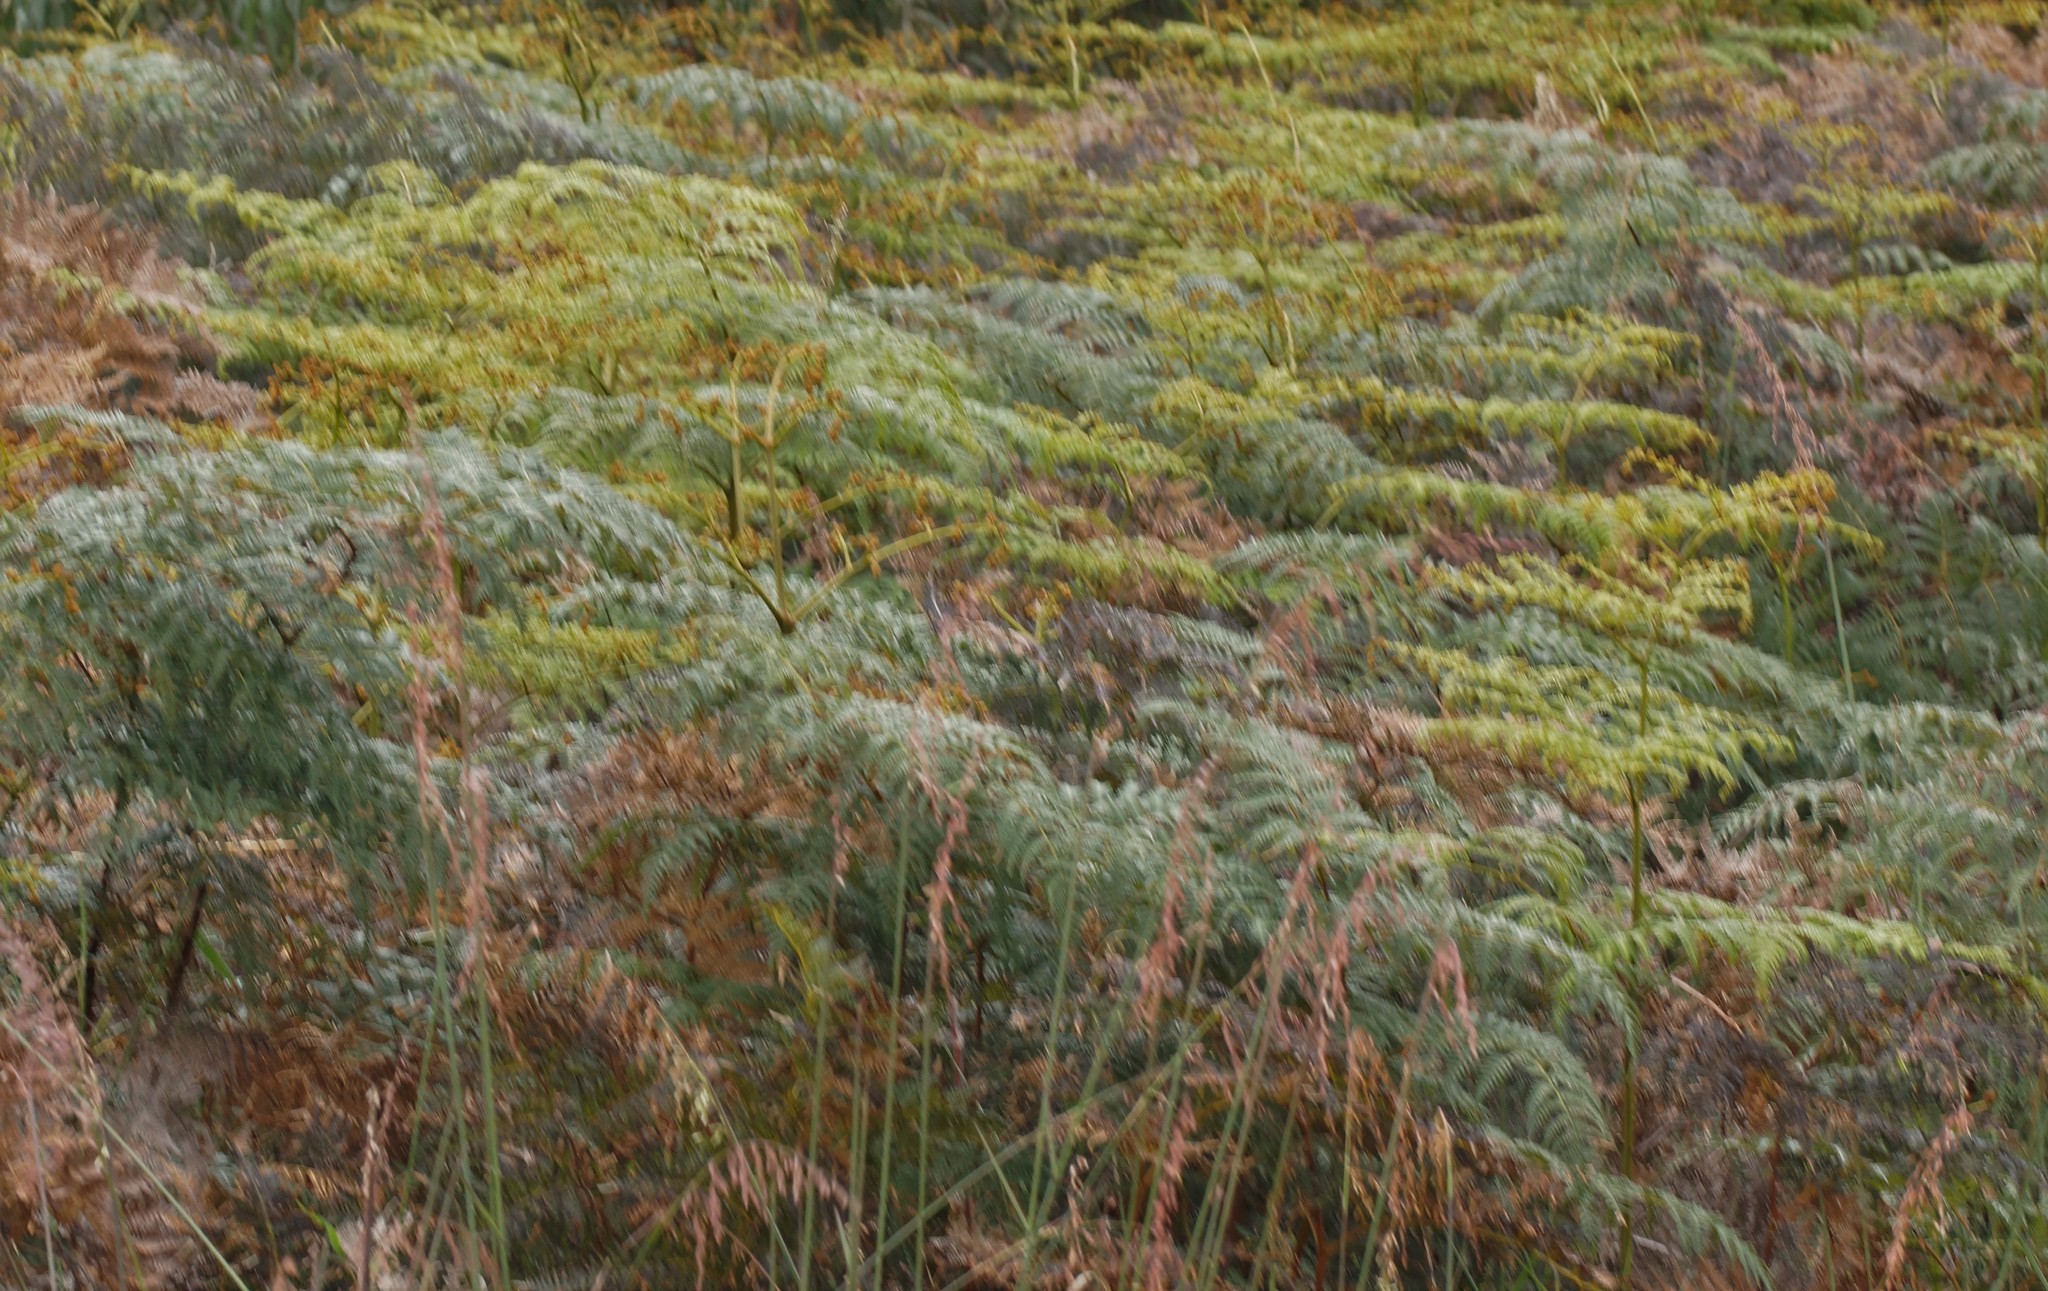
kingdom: Plantae
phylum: Tracheophyta
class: Polypodiopsida
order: Polypodiales
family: Dennstaedtiaceae
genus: Pteridium
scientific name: Pteridium esculentum
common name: Bracken fern
